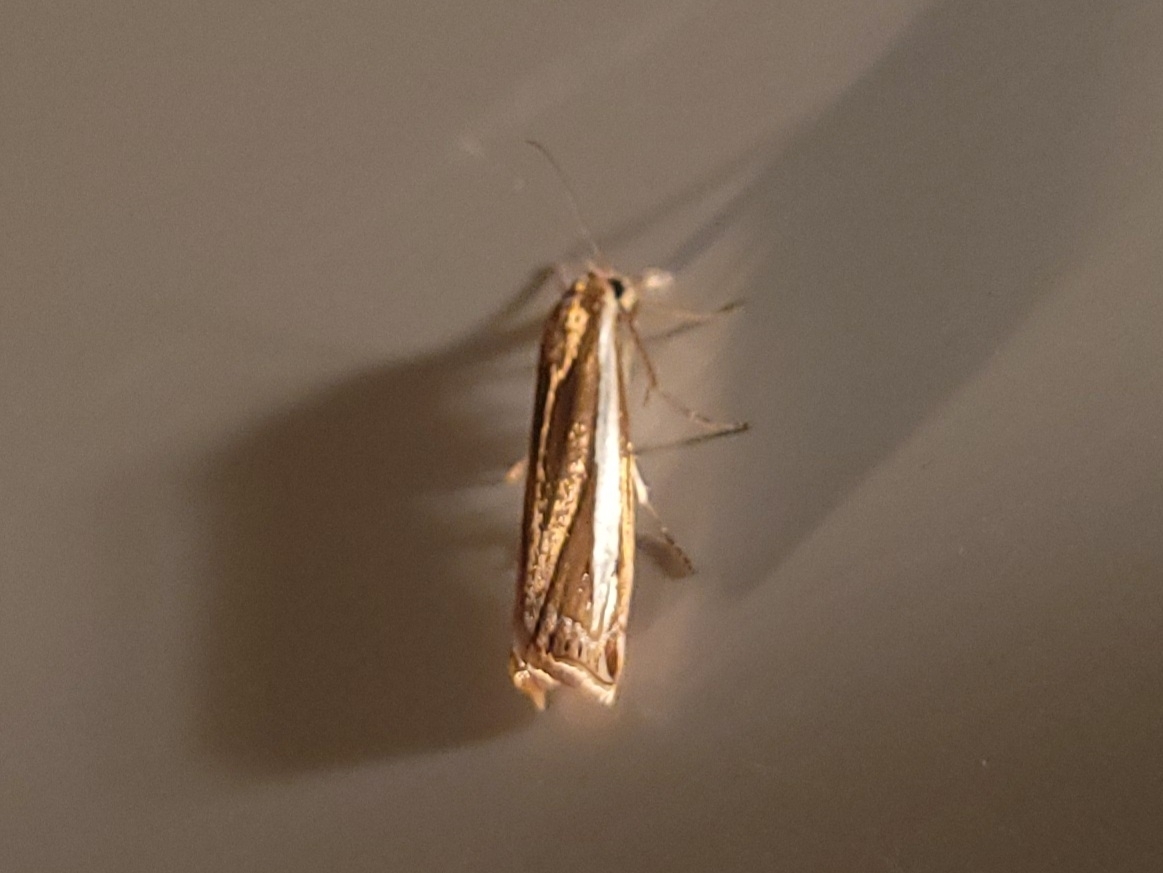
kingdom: Animalia
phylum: Arthropoda
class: Insecta
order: Lepidoptera
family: Crambidae
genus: Crambus
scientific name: Crambus praefectellus
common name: Common grass-veneer
